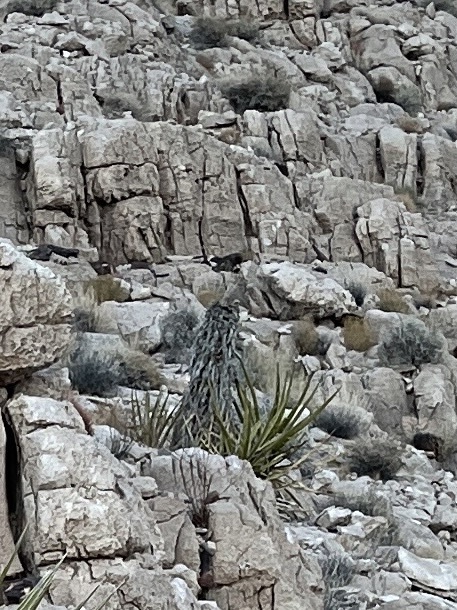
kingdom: Plantae
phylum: Tracheophyta
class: Liliopsida
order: Asparagales
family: Asparagaceae
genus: Yucca
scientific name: Yucca schidigera
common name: Mojave yucca
